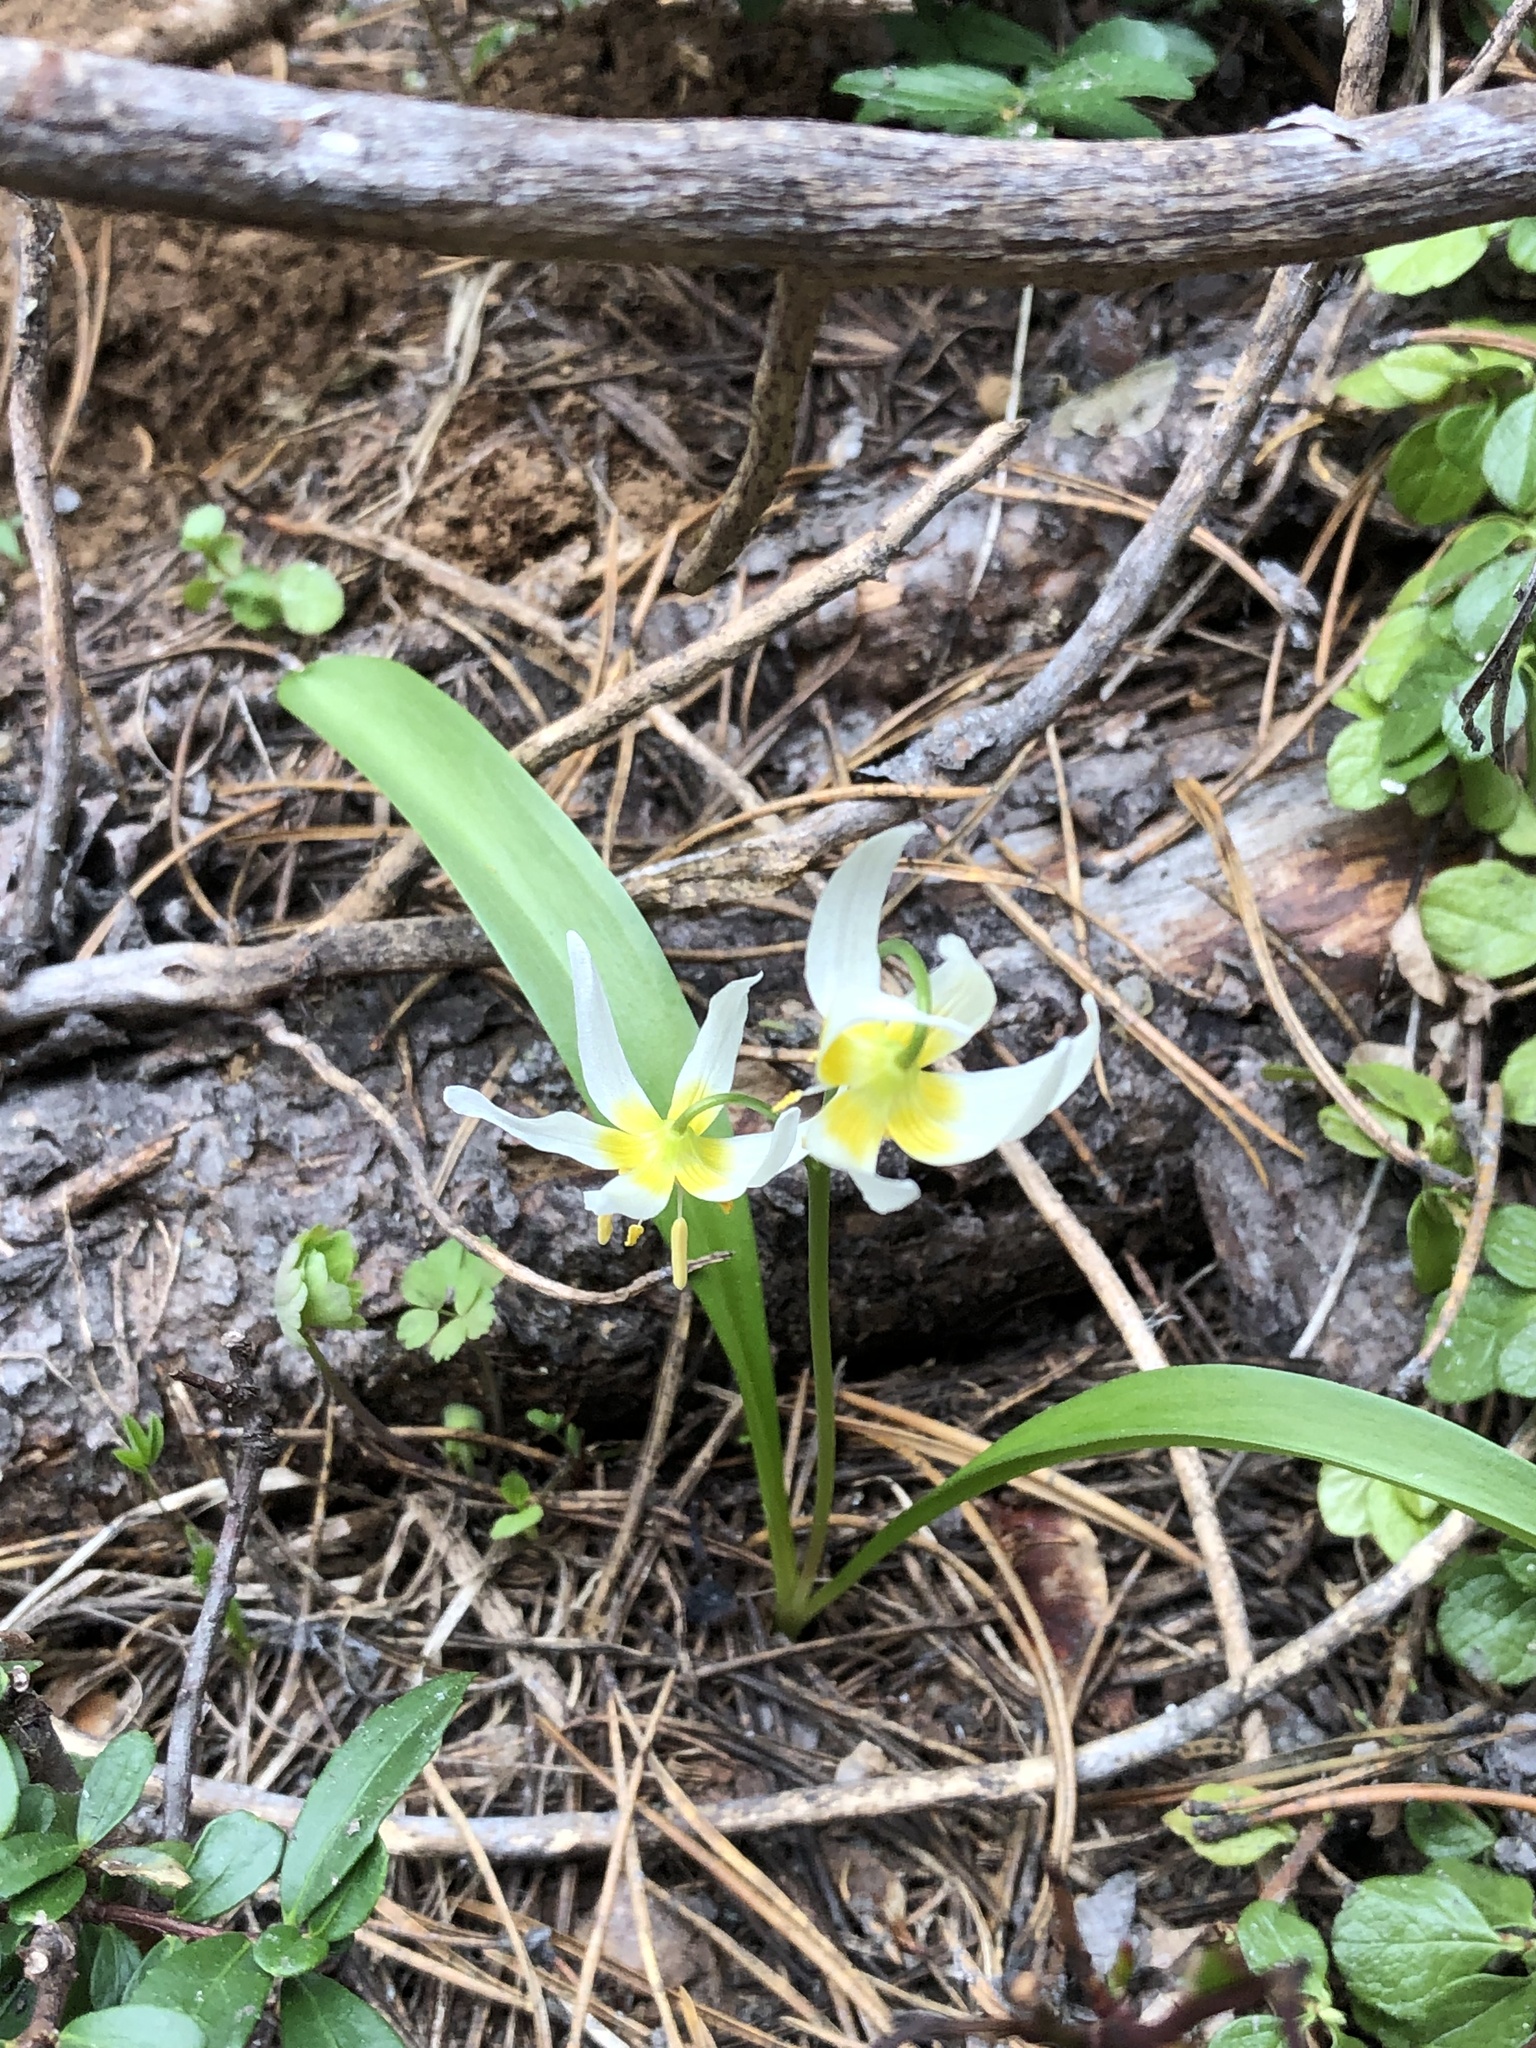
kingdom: Plantae
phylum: Tracheophyta
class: Liliopsida
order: Liliales
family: Liliaceae
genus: Erythronium
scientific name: Erythronium klamathense
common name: Klamath fawn-lily
